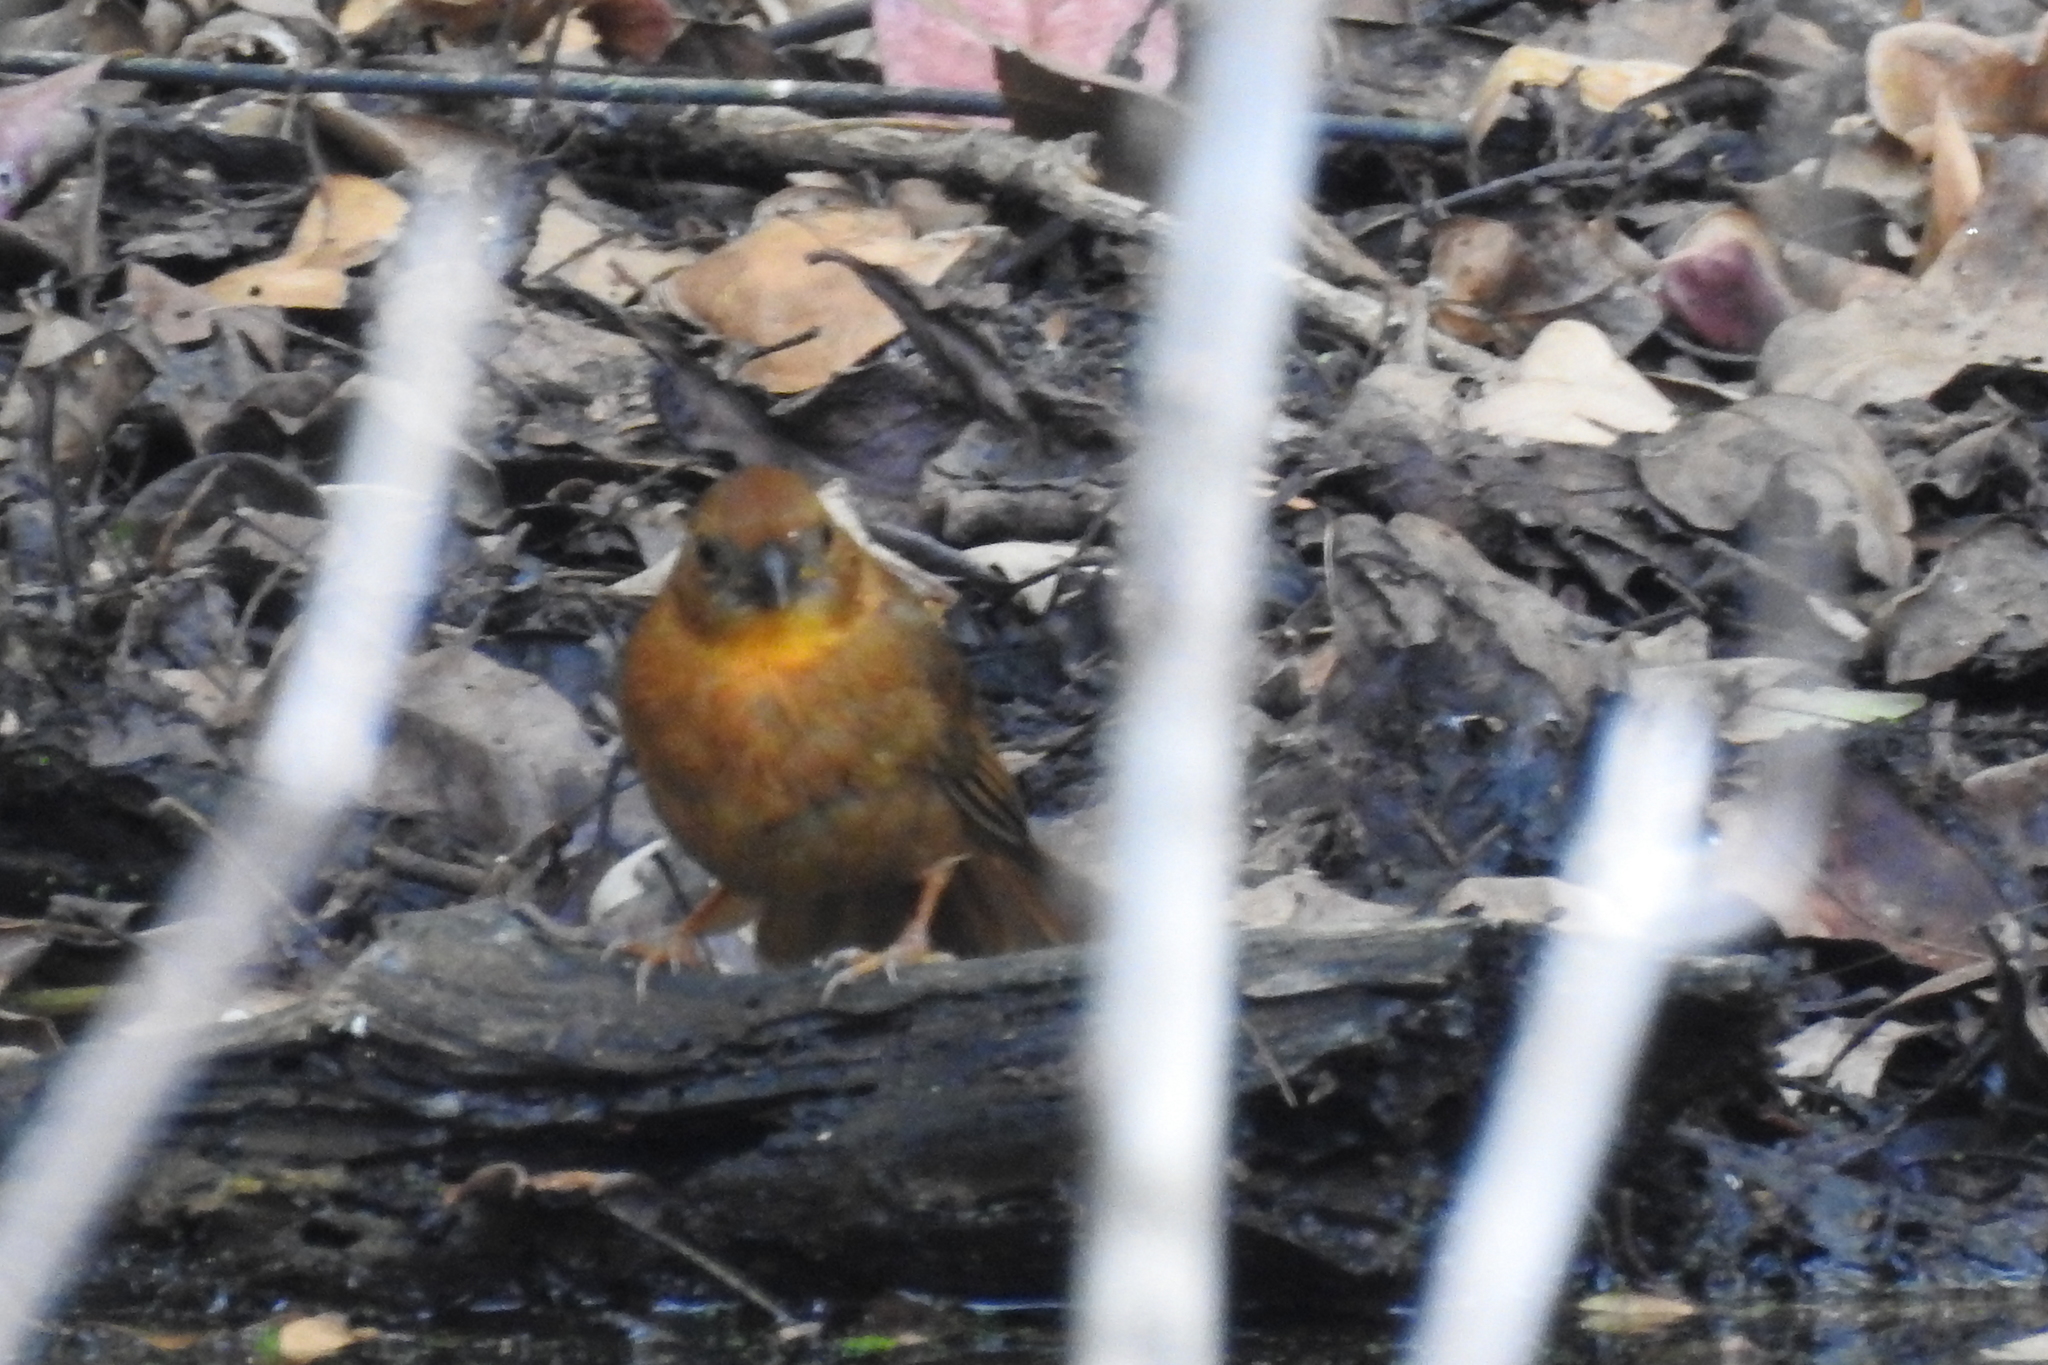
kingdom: Animalia
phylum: Chordata
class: Aves
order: Passeriformes
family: Cardinalidae
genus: Habia
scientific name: Habia fuscicauda
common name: Red-throated ant-tanager
